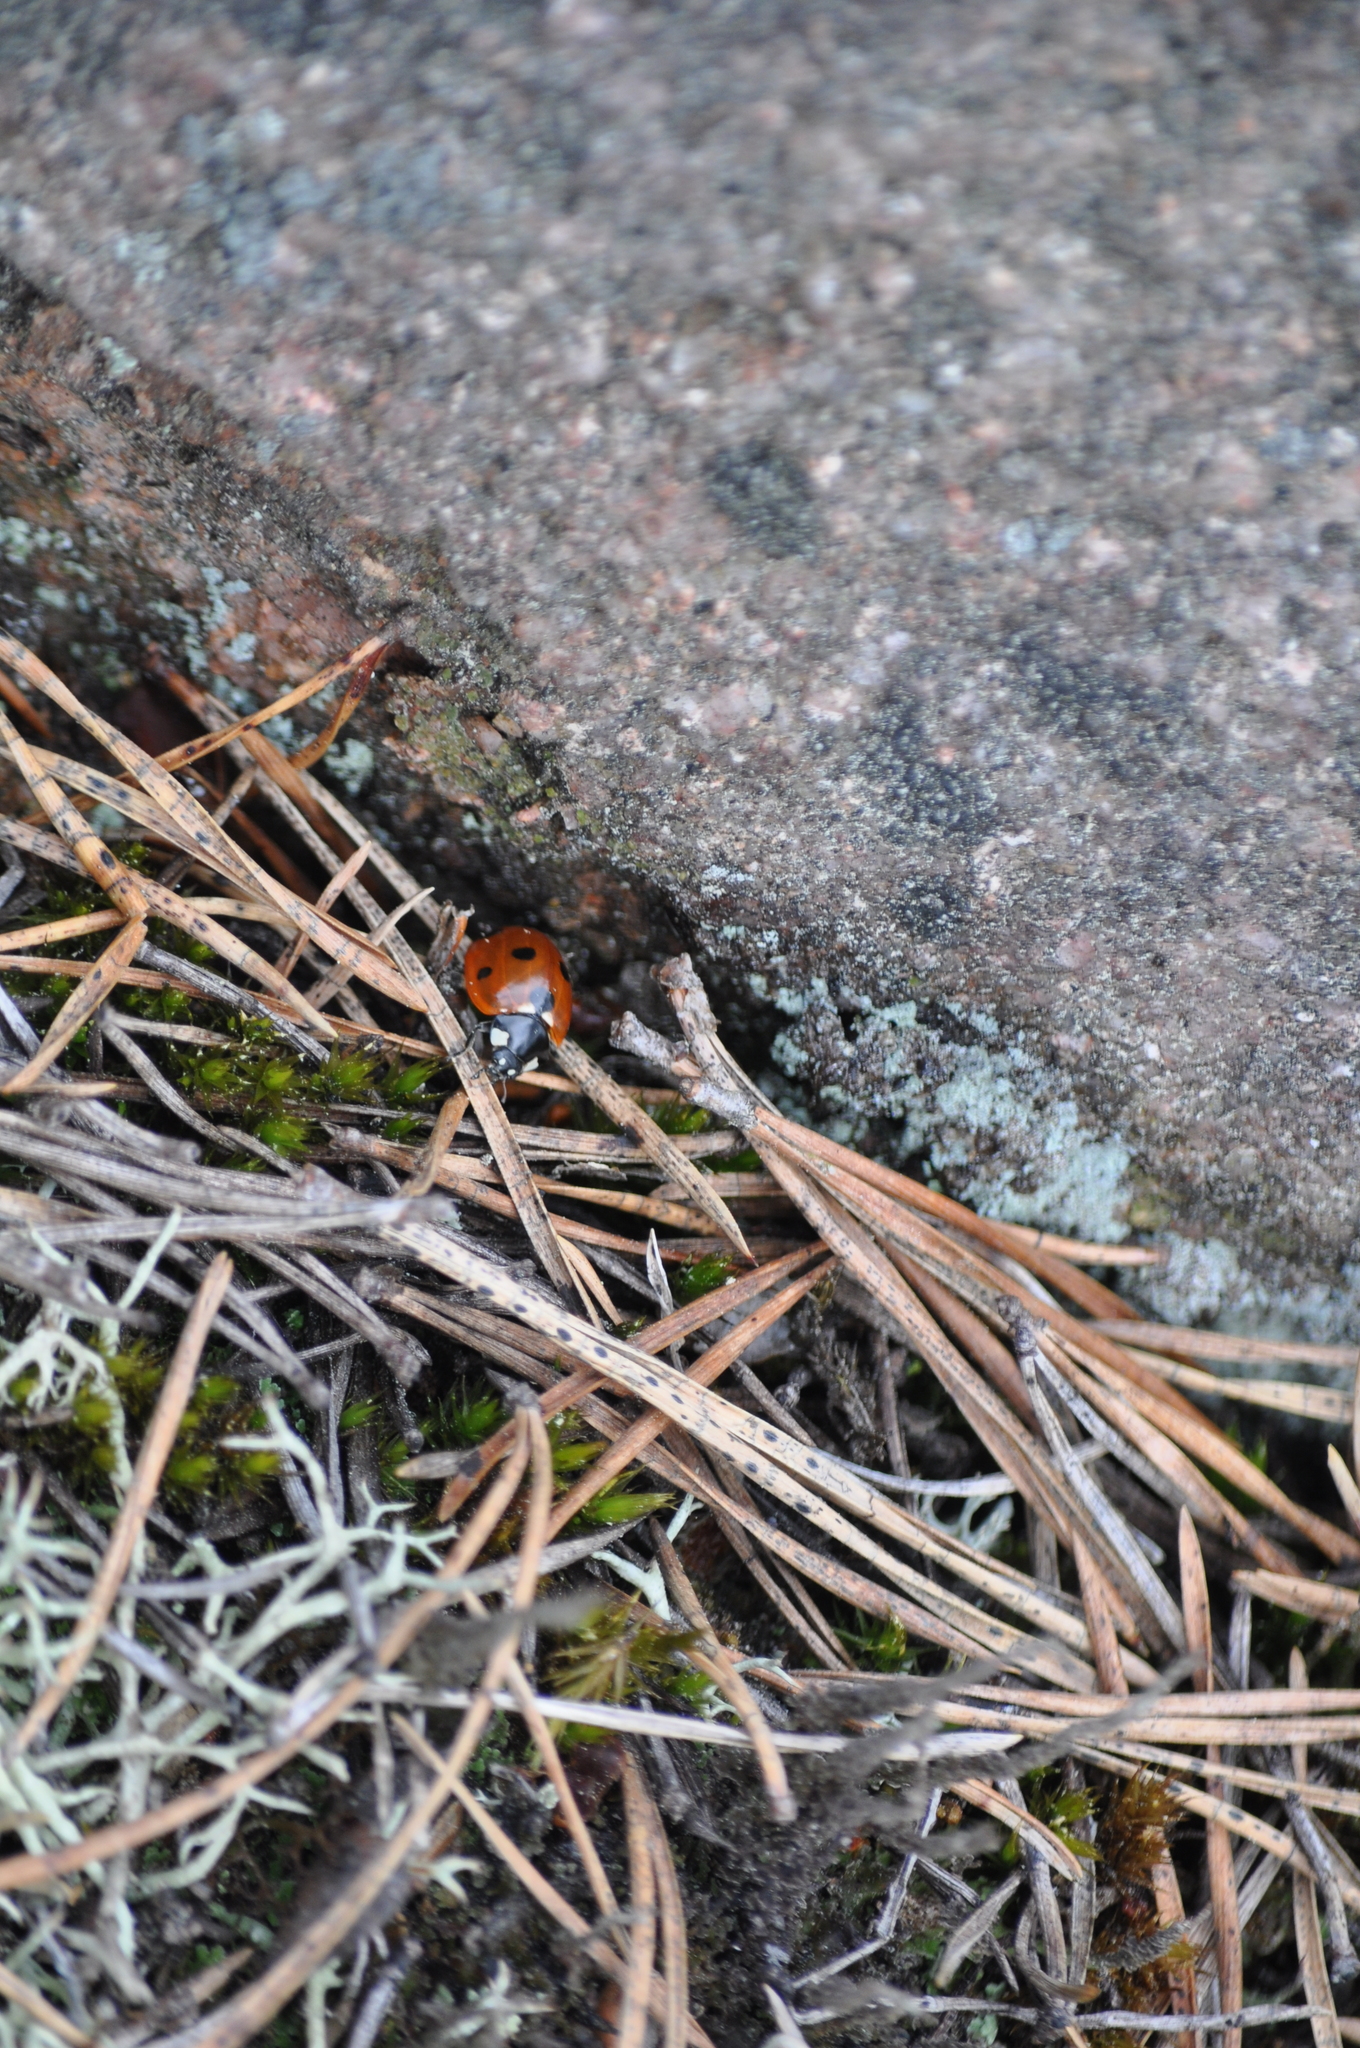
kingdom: Animalia
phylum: Arthropoda
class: Insecta
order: Coleoptera
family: Coccinellidae
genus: Coccinella
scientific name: Coccinella septempunctata
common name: Sevenspotted lady beetle
